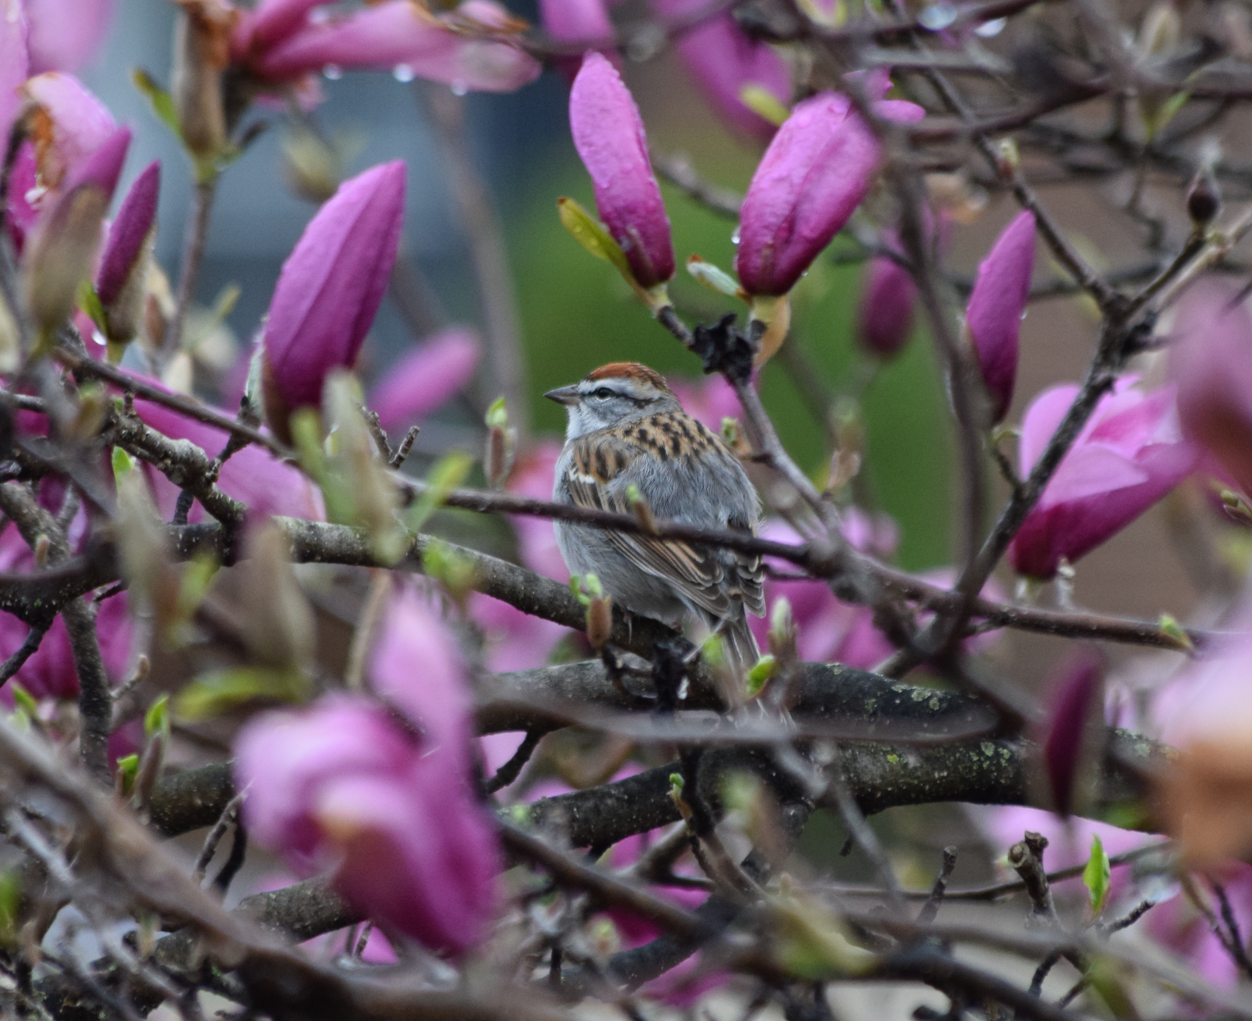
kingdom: Animalia
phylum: Chordata
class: Aves
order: Passeriformes
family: Passerellidae
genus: Spizella
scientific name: Spizella passerina
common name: Chipping sparrow
